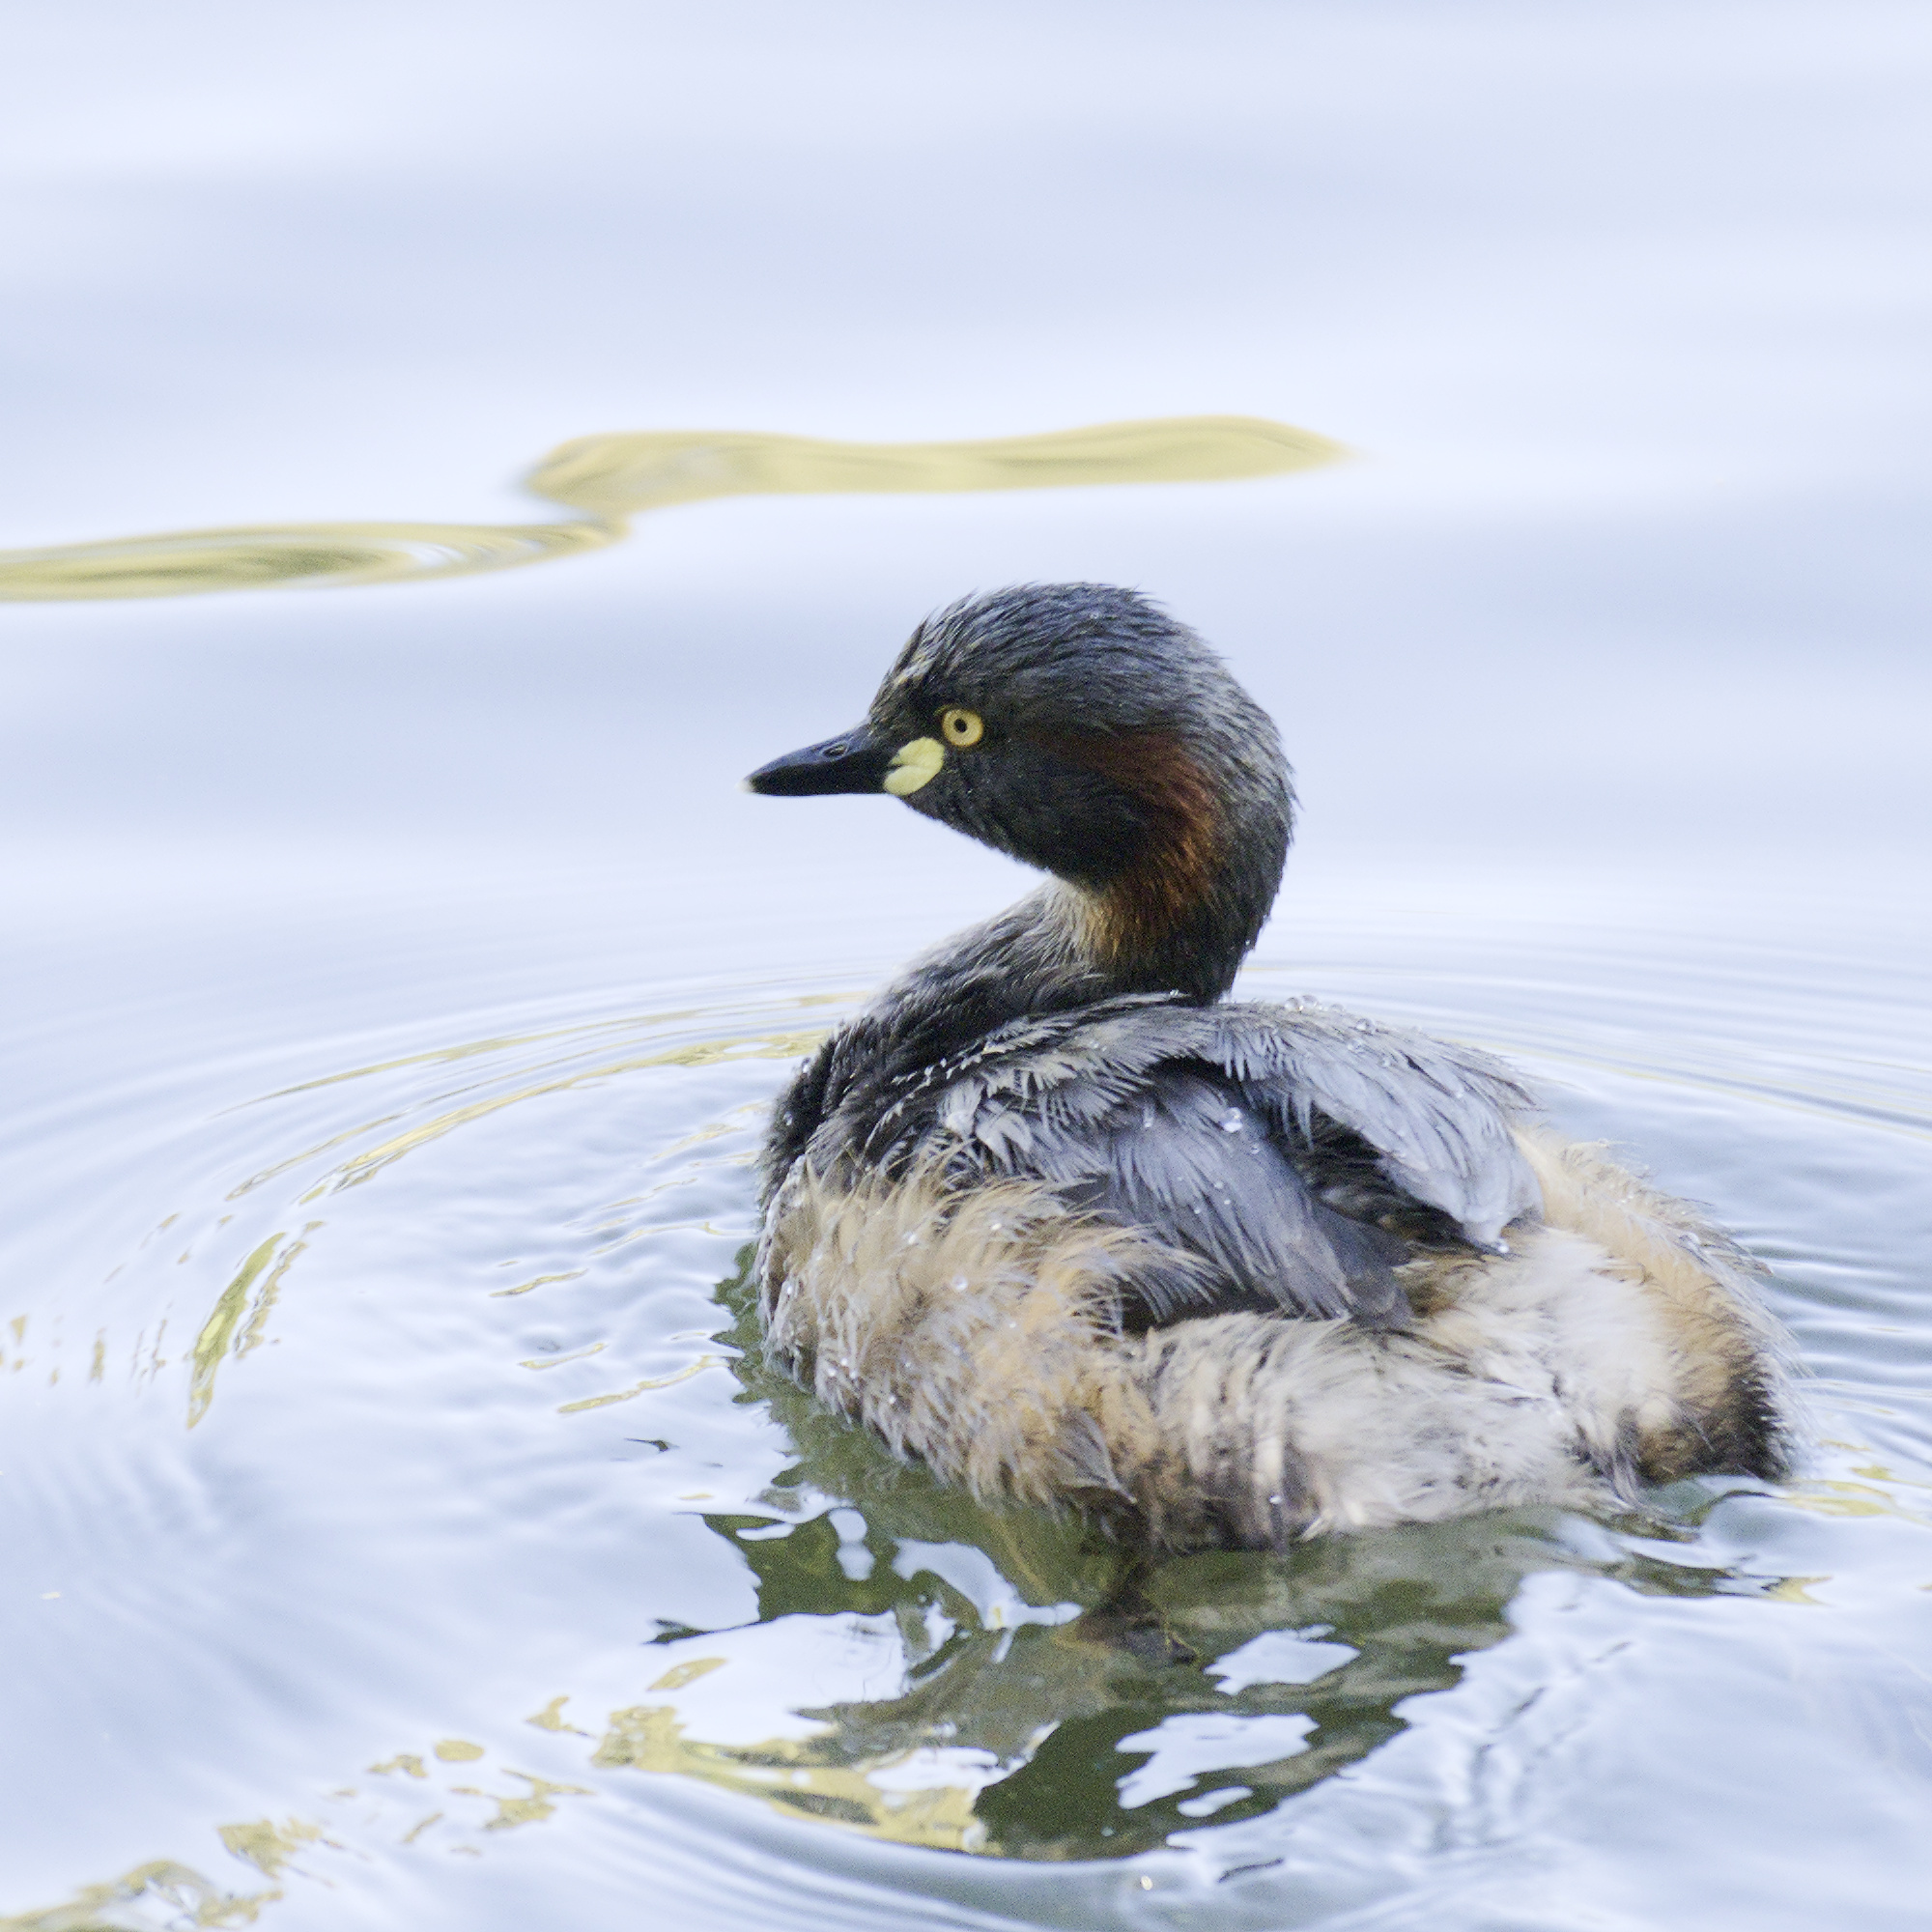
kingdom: Animalia
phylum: Chordata
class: Aves
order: Podicipediformes
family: Podicipedidae
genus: Tachybaptus
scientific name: Tachybaptus novaehollandiae
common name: Australasian grebe
